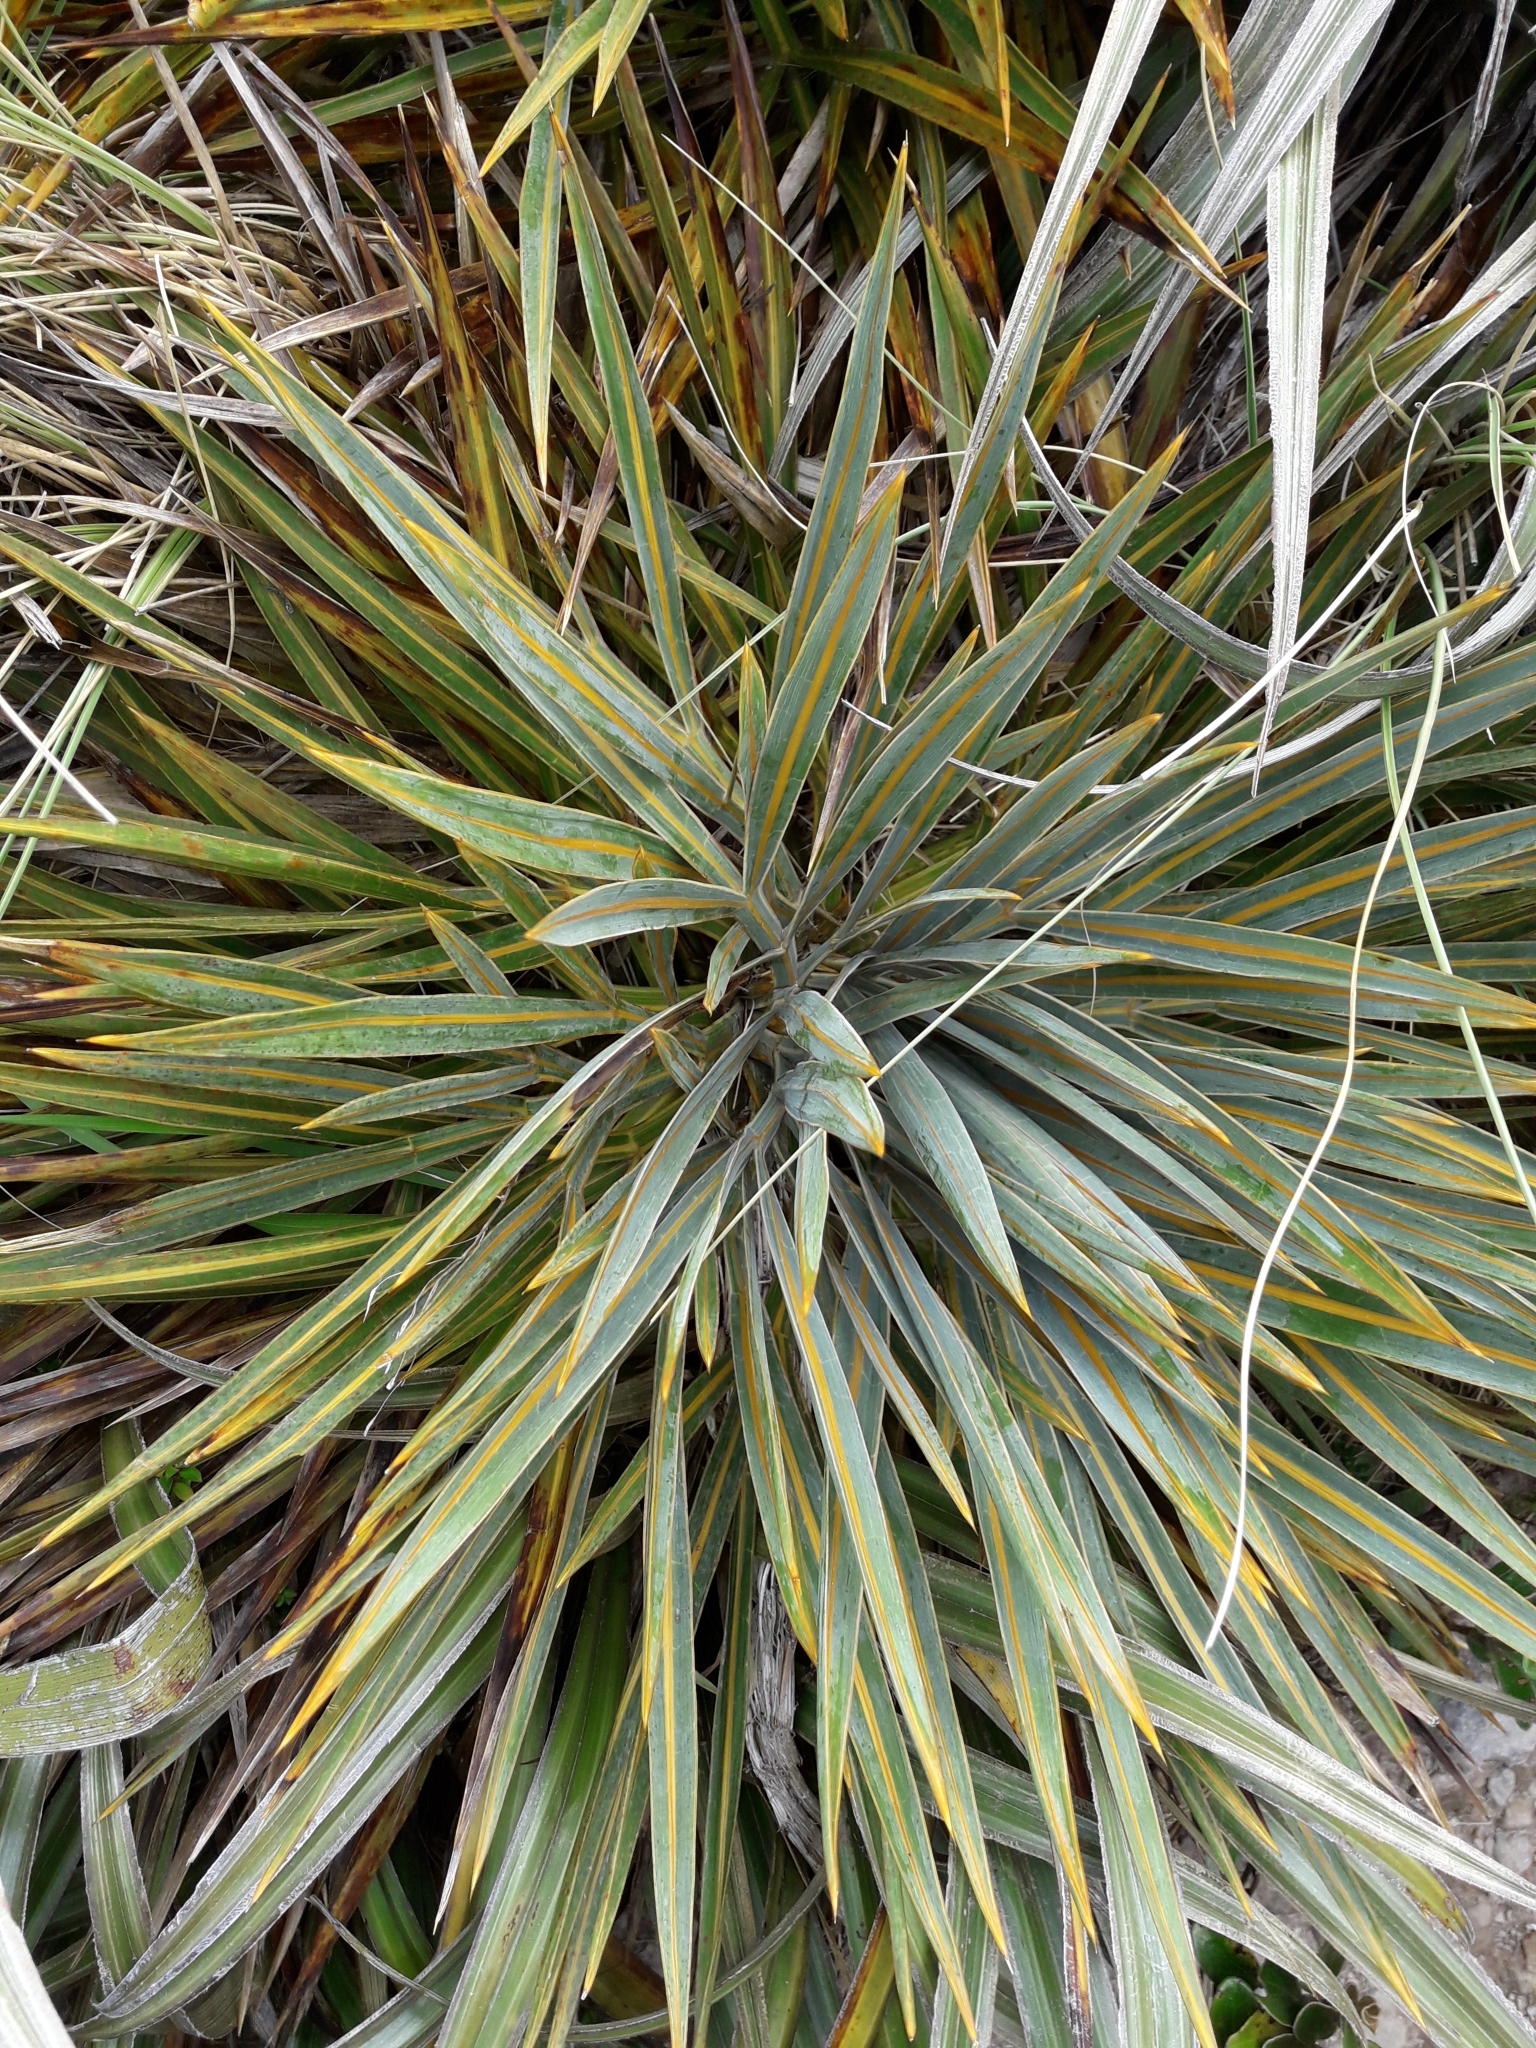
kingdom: Plantae
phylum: Tracheophyta
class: Magnoliopsida
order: Apiales
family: Apiaceae
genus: Aciphylla
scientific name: Aciphylla colensoi
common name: Colenso's spaniard
